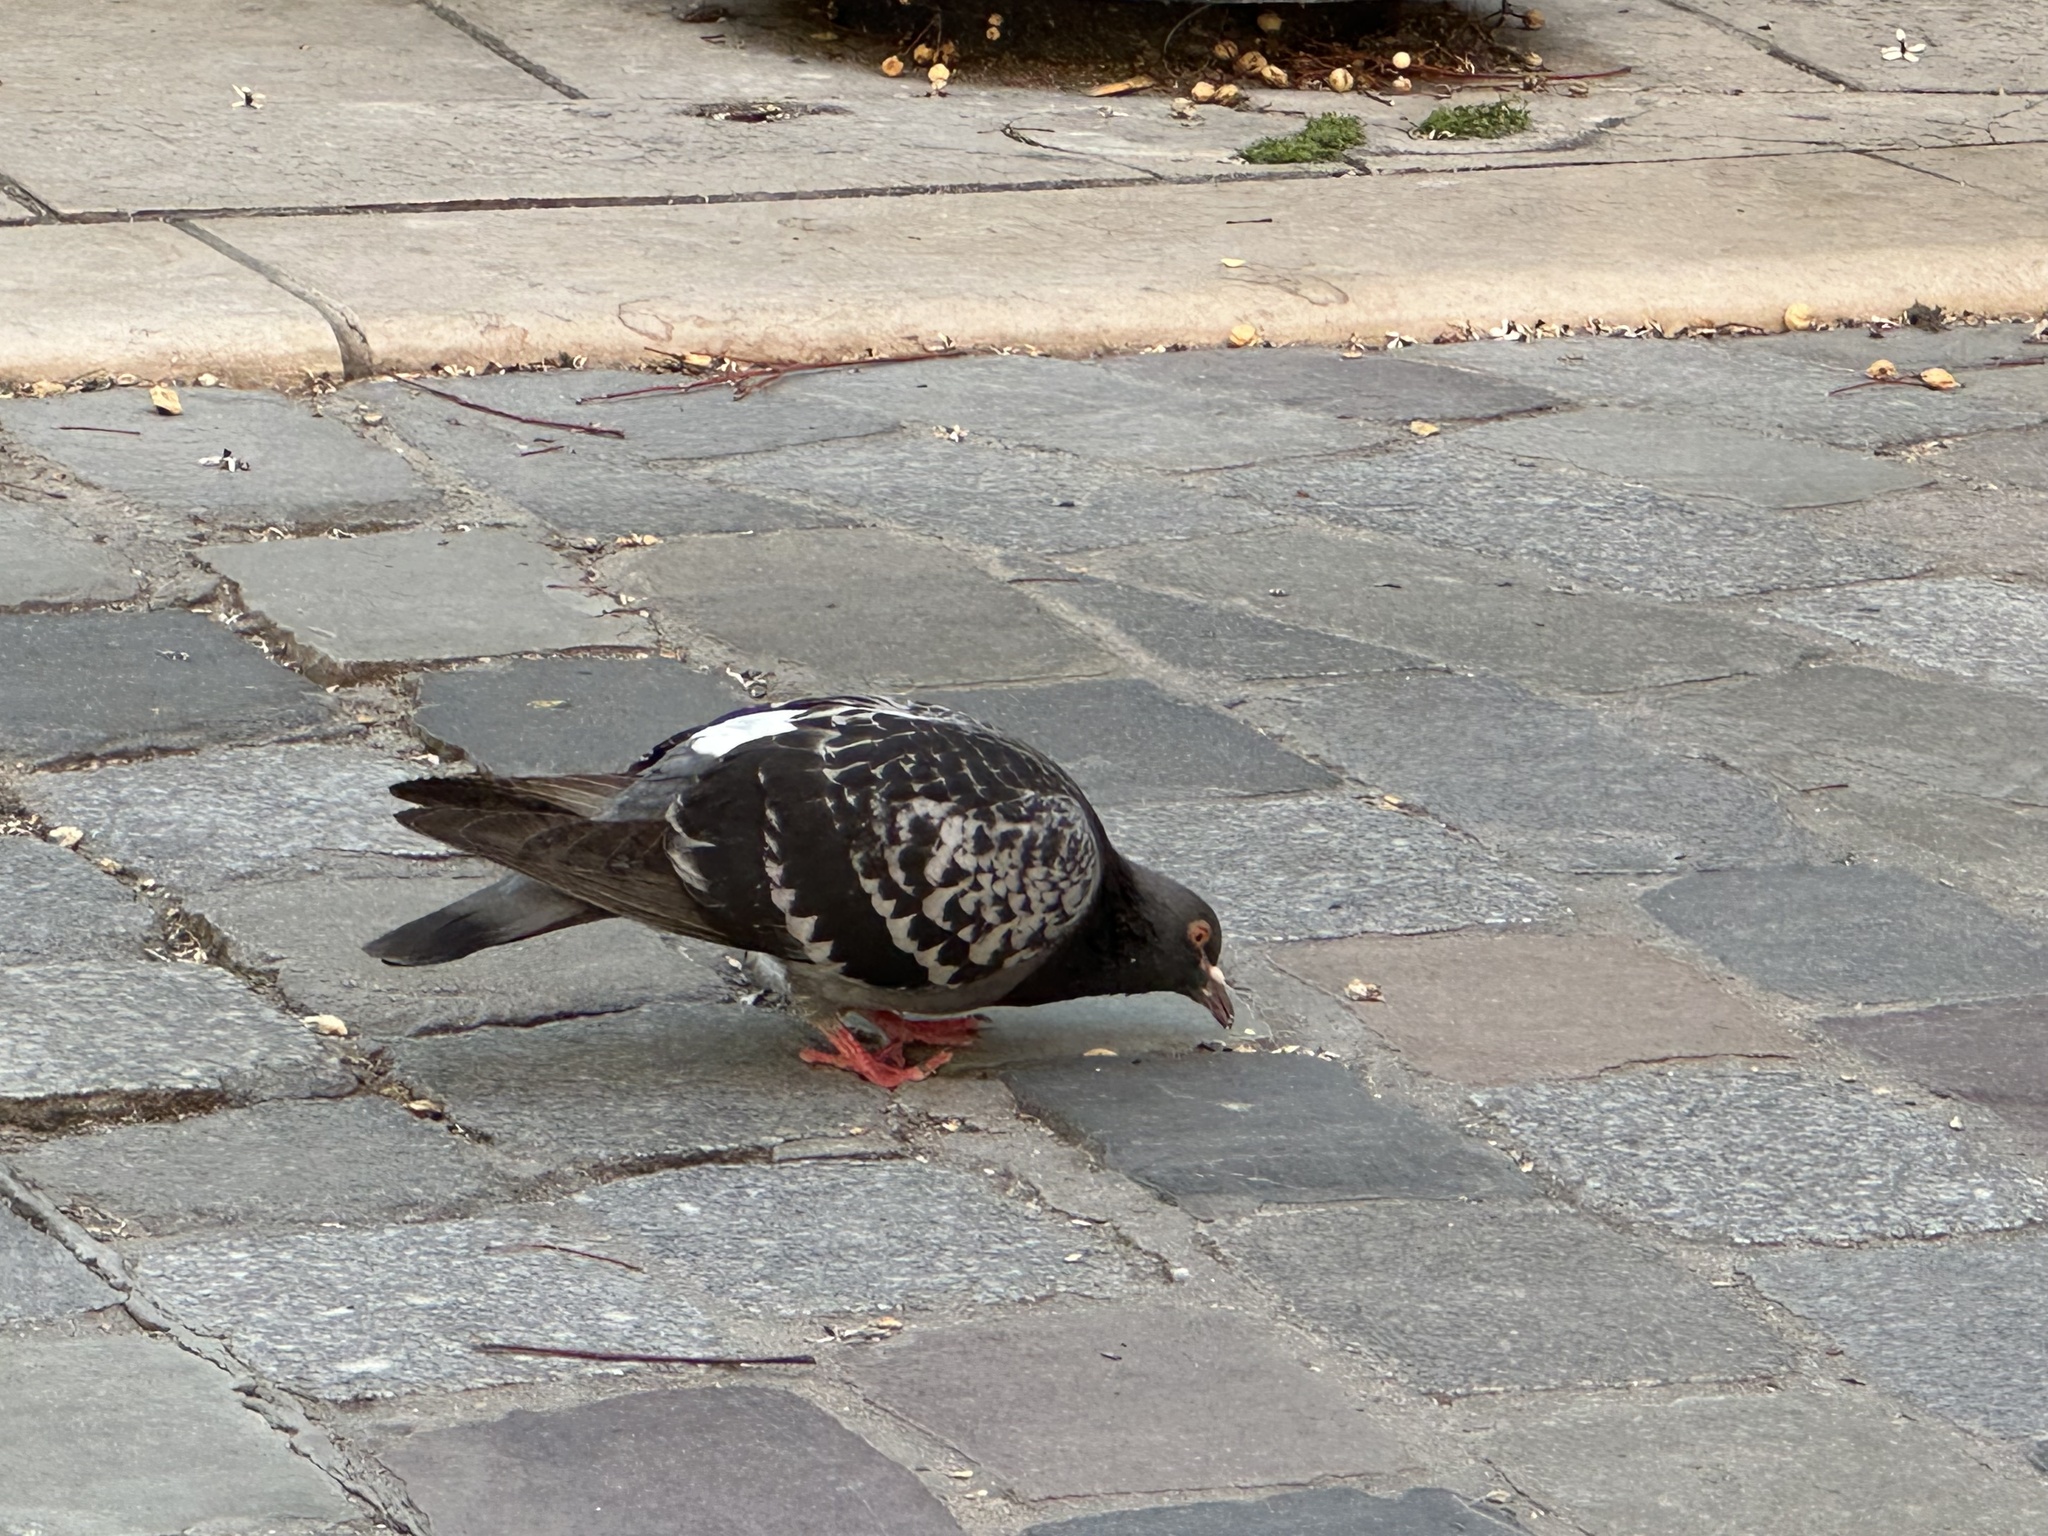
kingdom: Animalia
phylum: Chordata
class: Aves
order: Columbiformes
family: Columbidae
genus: Columba
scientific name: Columba livia
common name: Rock pigeon
